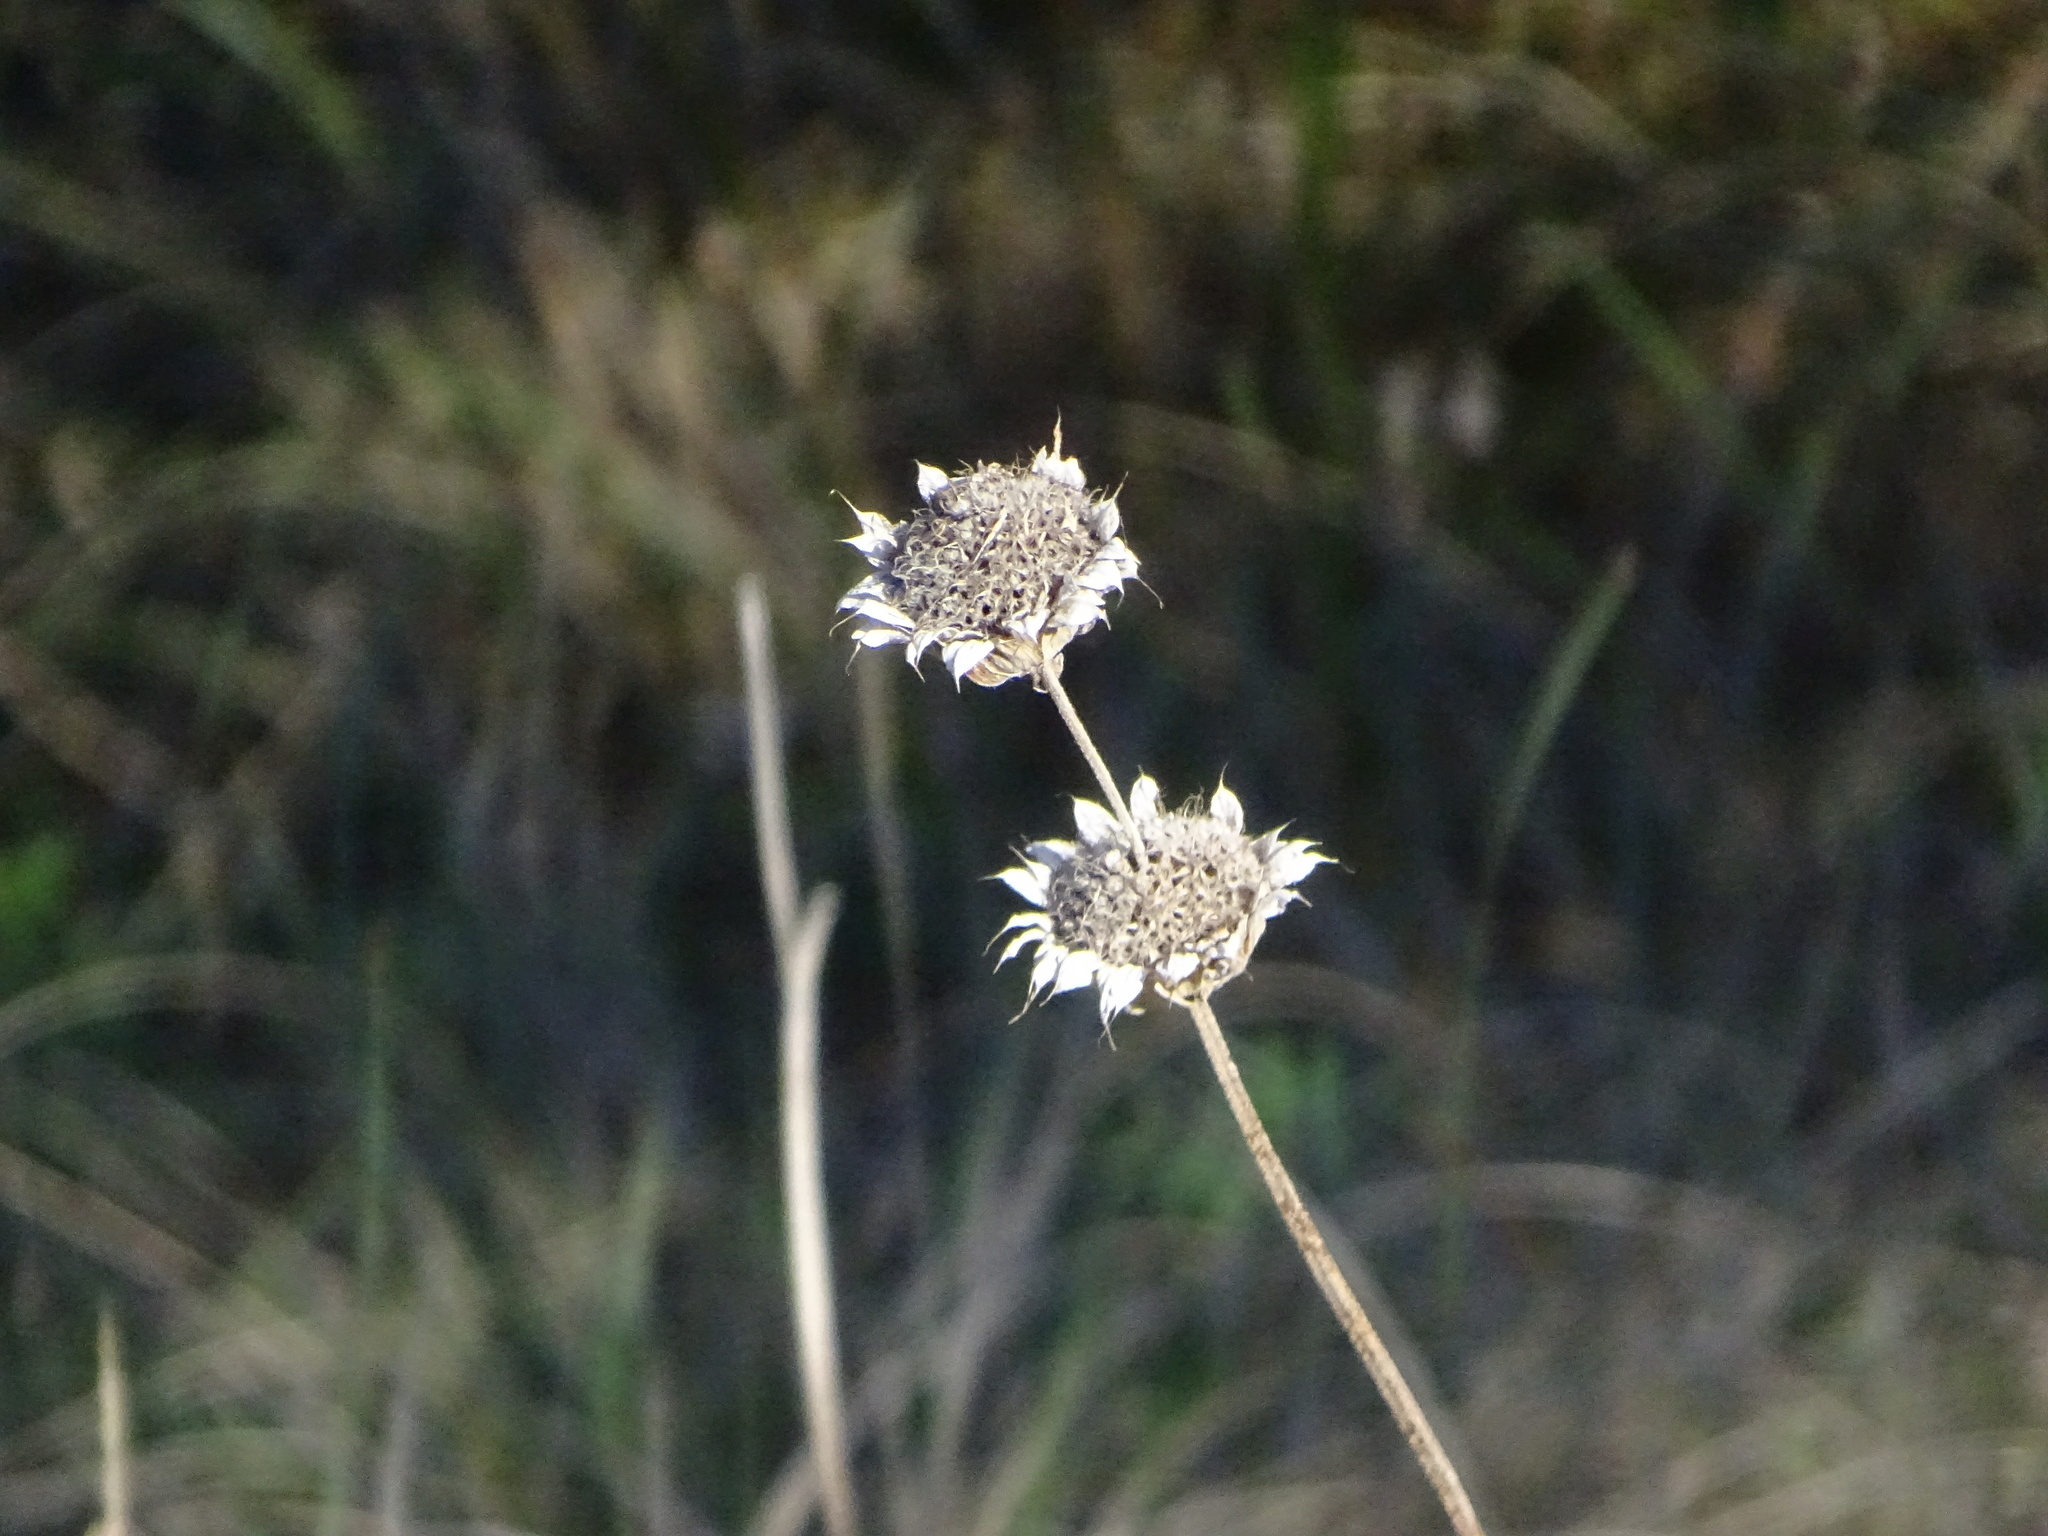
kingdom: Plantae
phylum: Tracheophyta
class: Magnoliopsida
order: Lamiales
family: Lamiaceae
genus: Monarda
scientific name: Monarda citriodora
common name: Lemon beebalm
